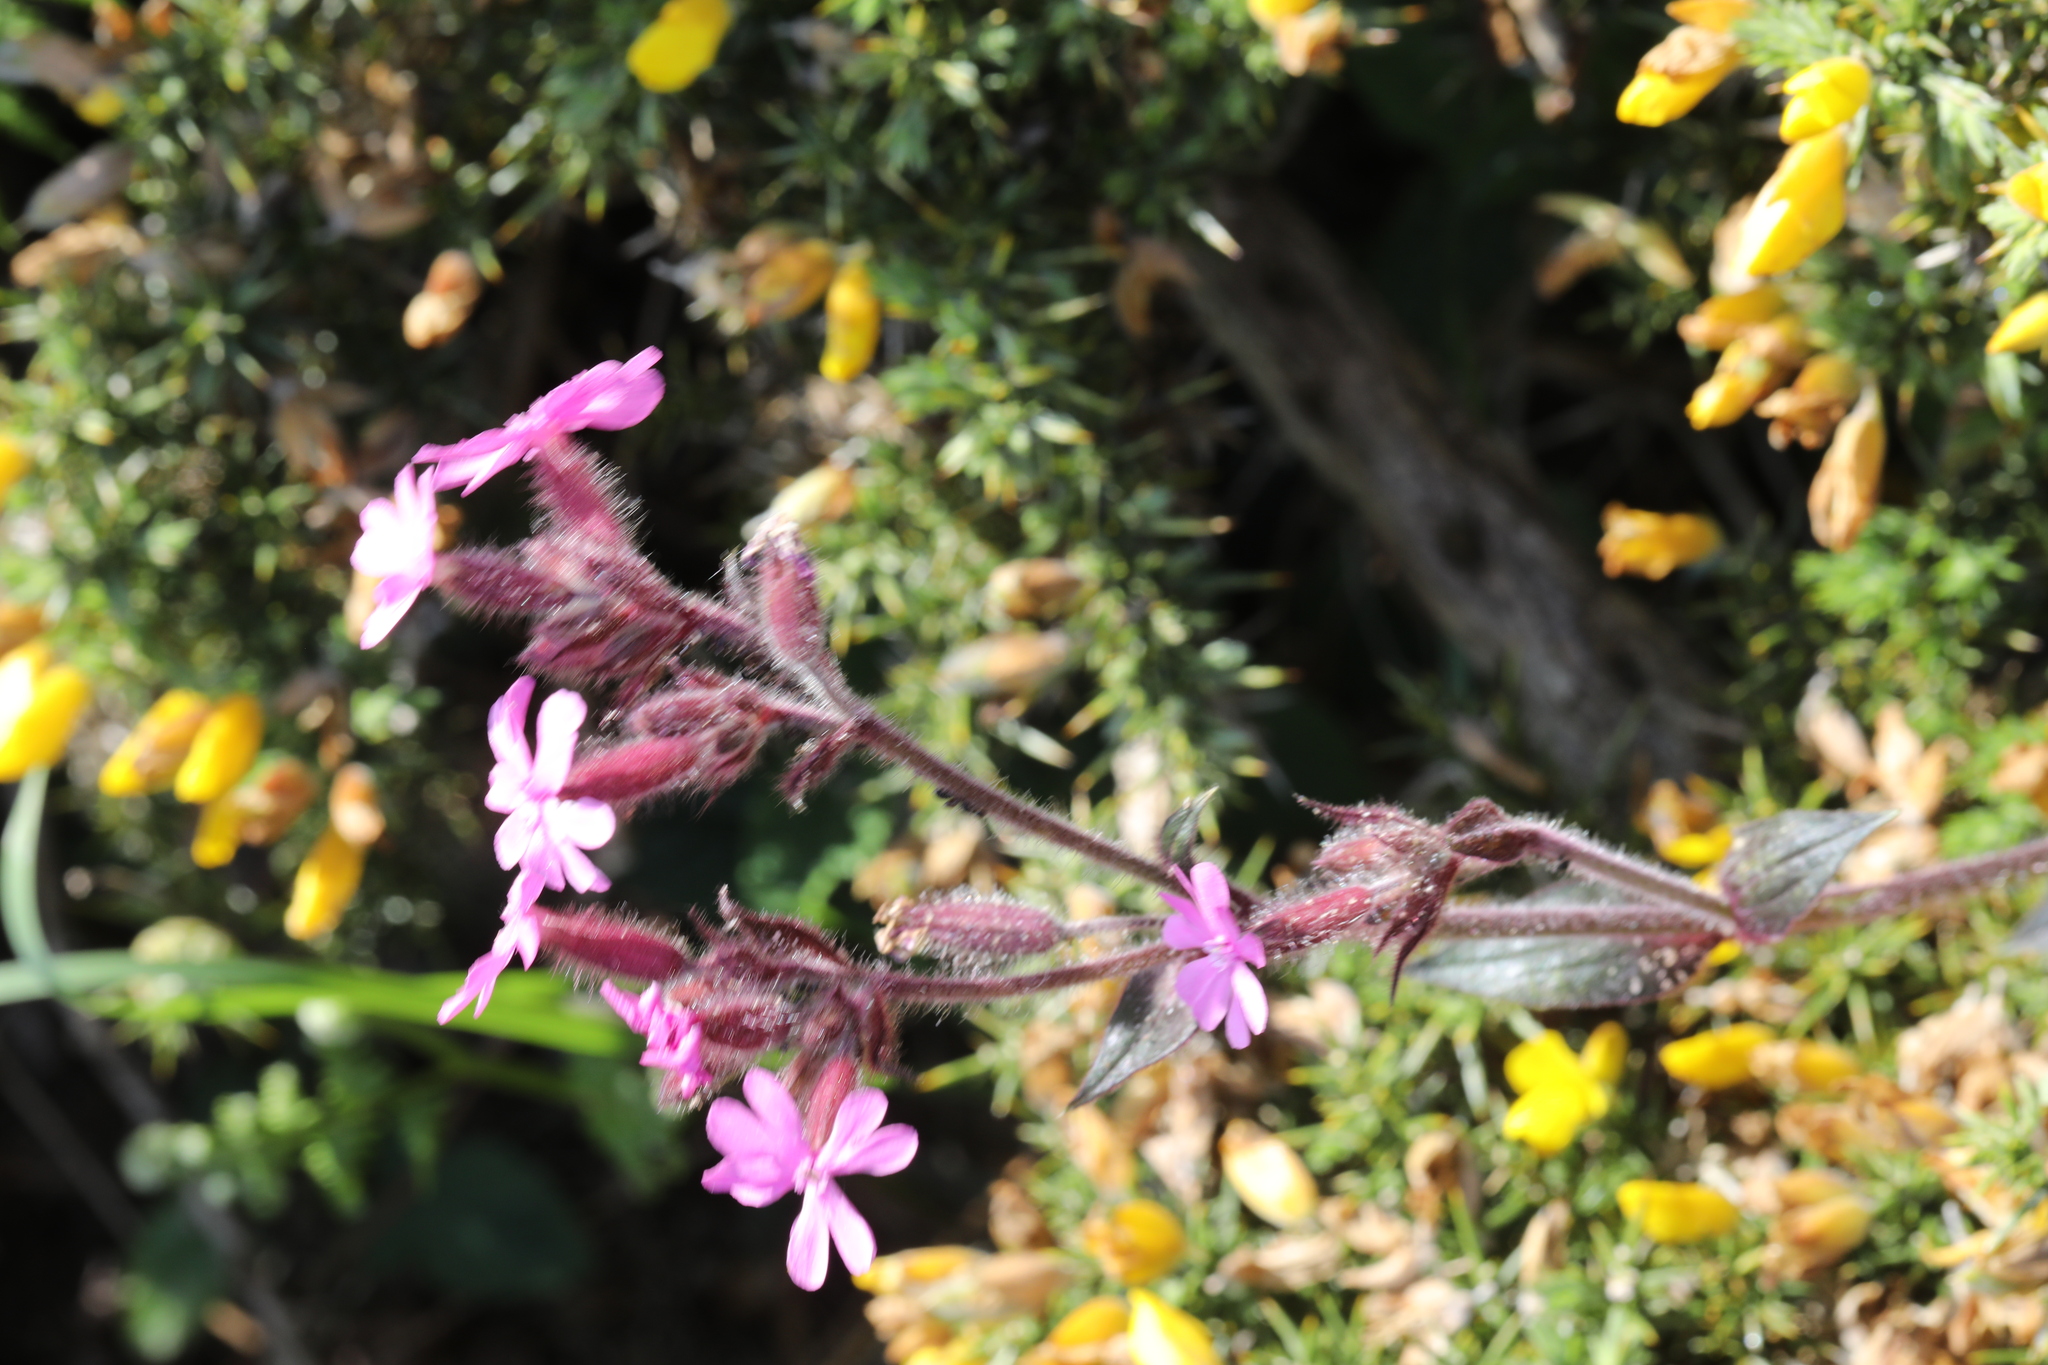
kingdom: Plantae
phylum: Tracheophyta
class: Magnoliopsida
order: Caryophyllales
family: Caryophyllaceae
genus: Silene
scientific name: Silene dioica
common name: Red campion
